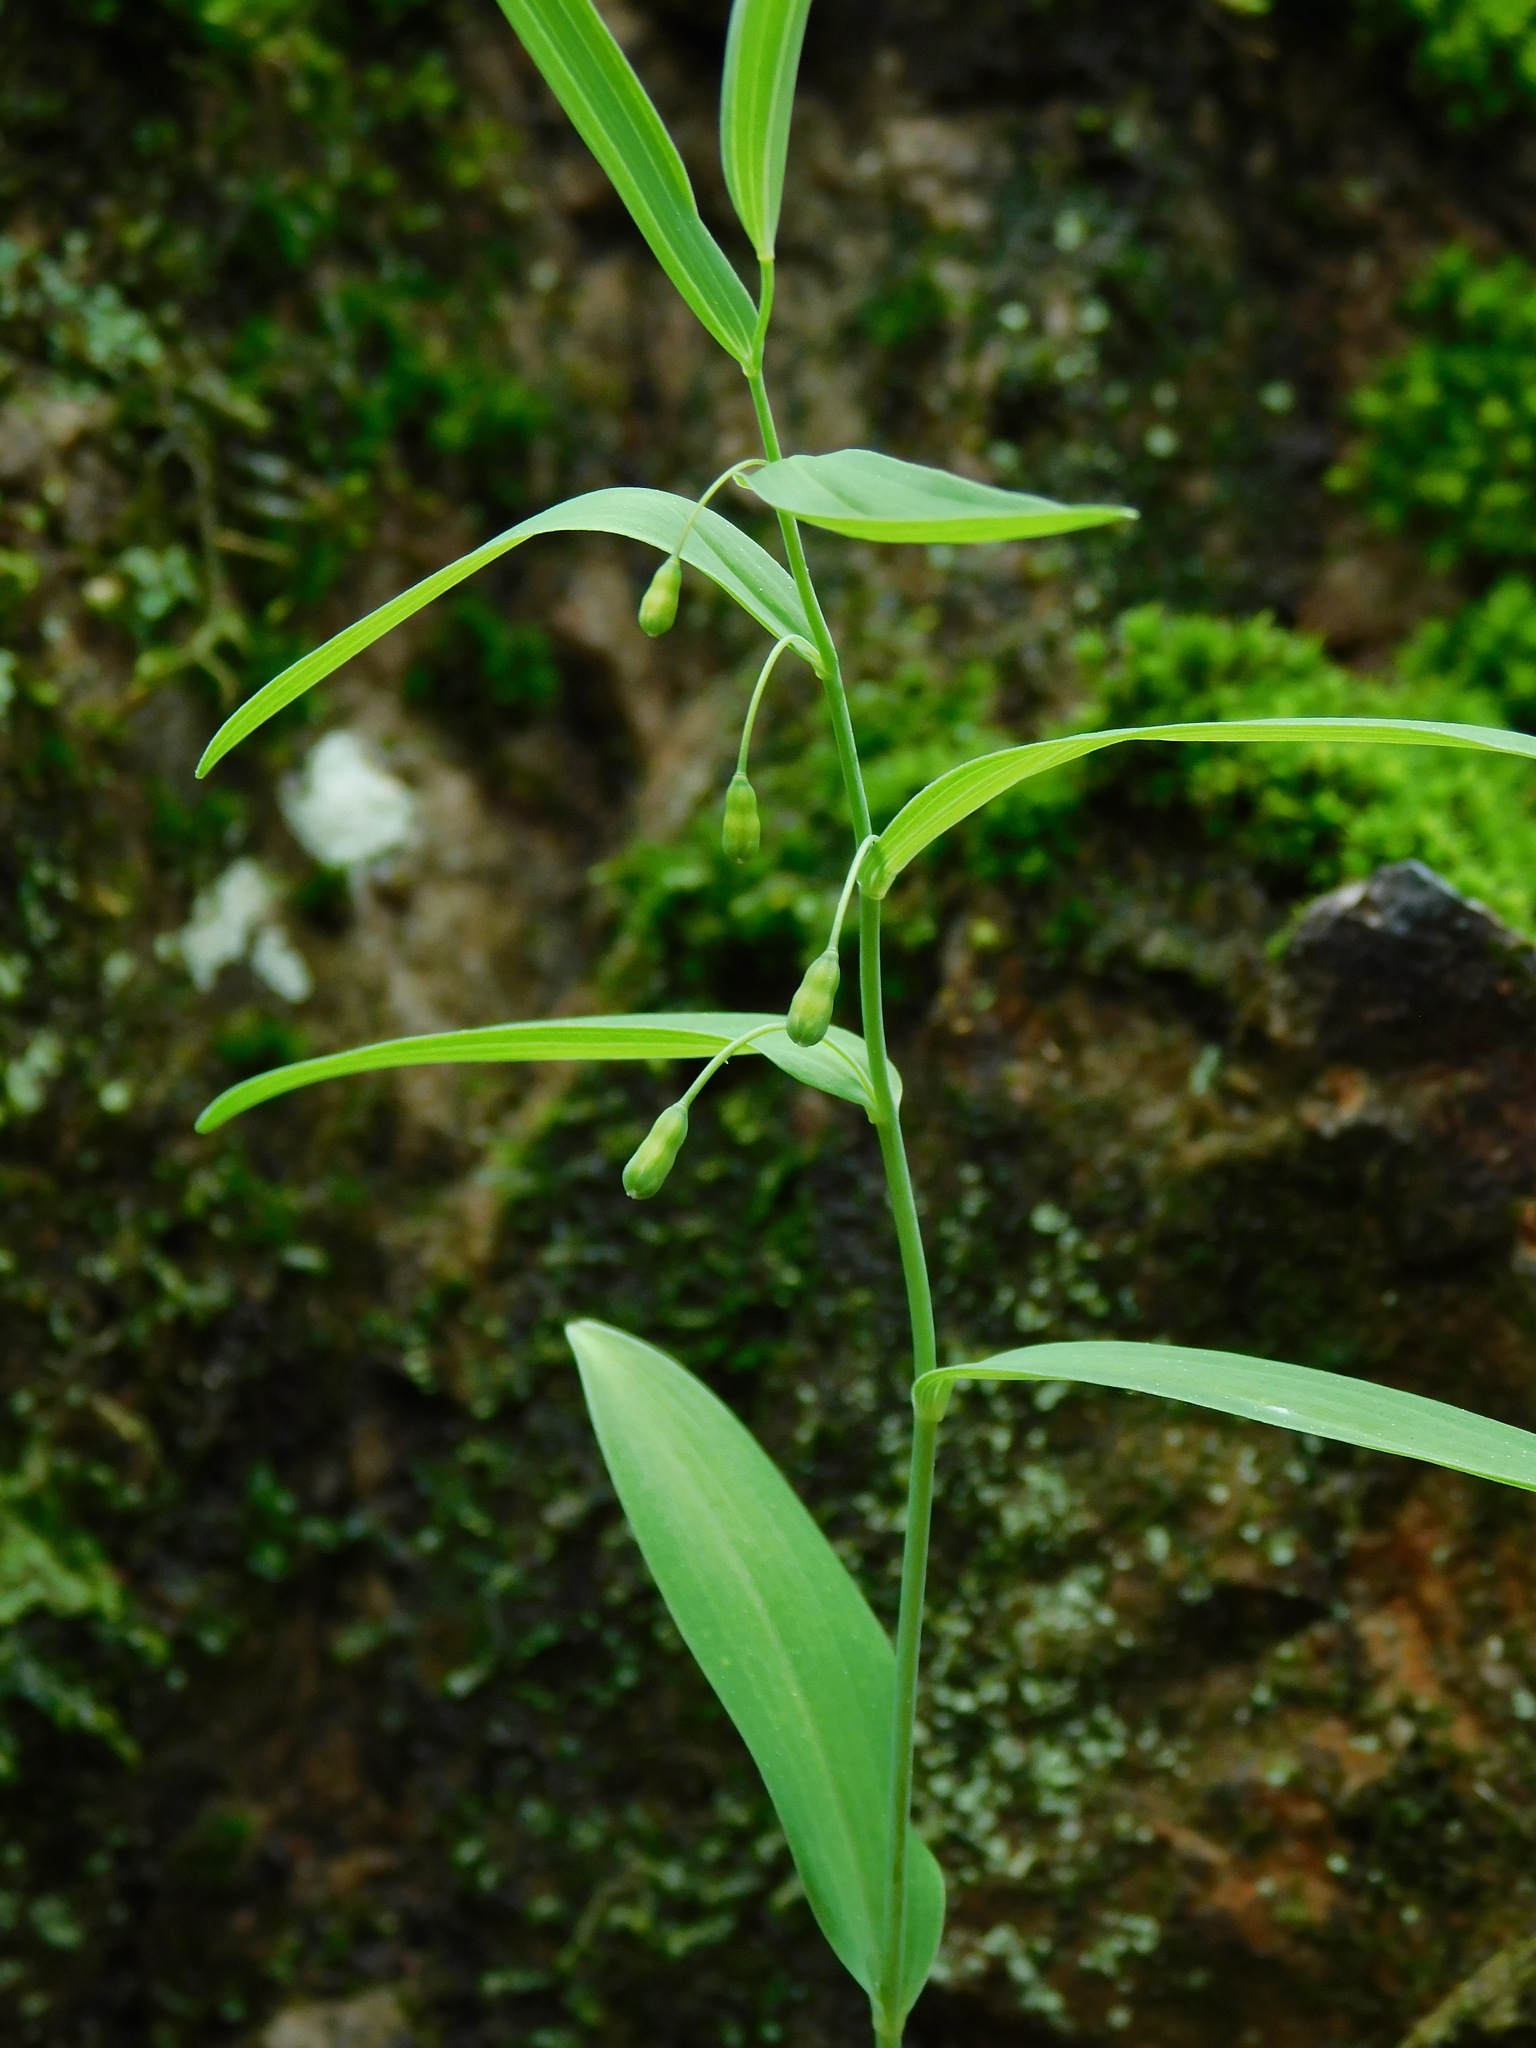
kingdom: Plantae
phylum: Tracheophyta
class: Liliopsida
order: Asparagales
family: Asparagaceae
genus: Polygonatum
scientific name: Polygonatum biflorum
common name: American solomon's-seal
